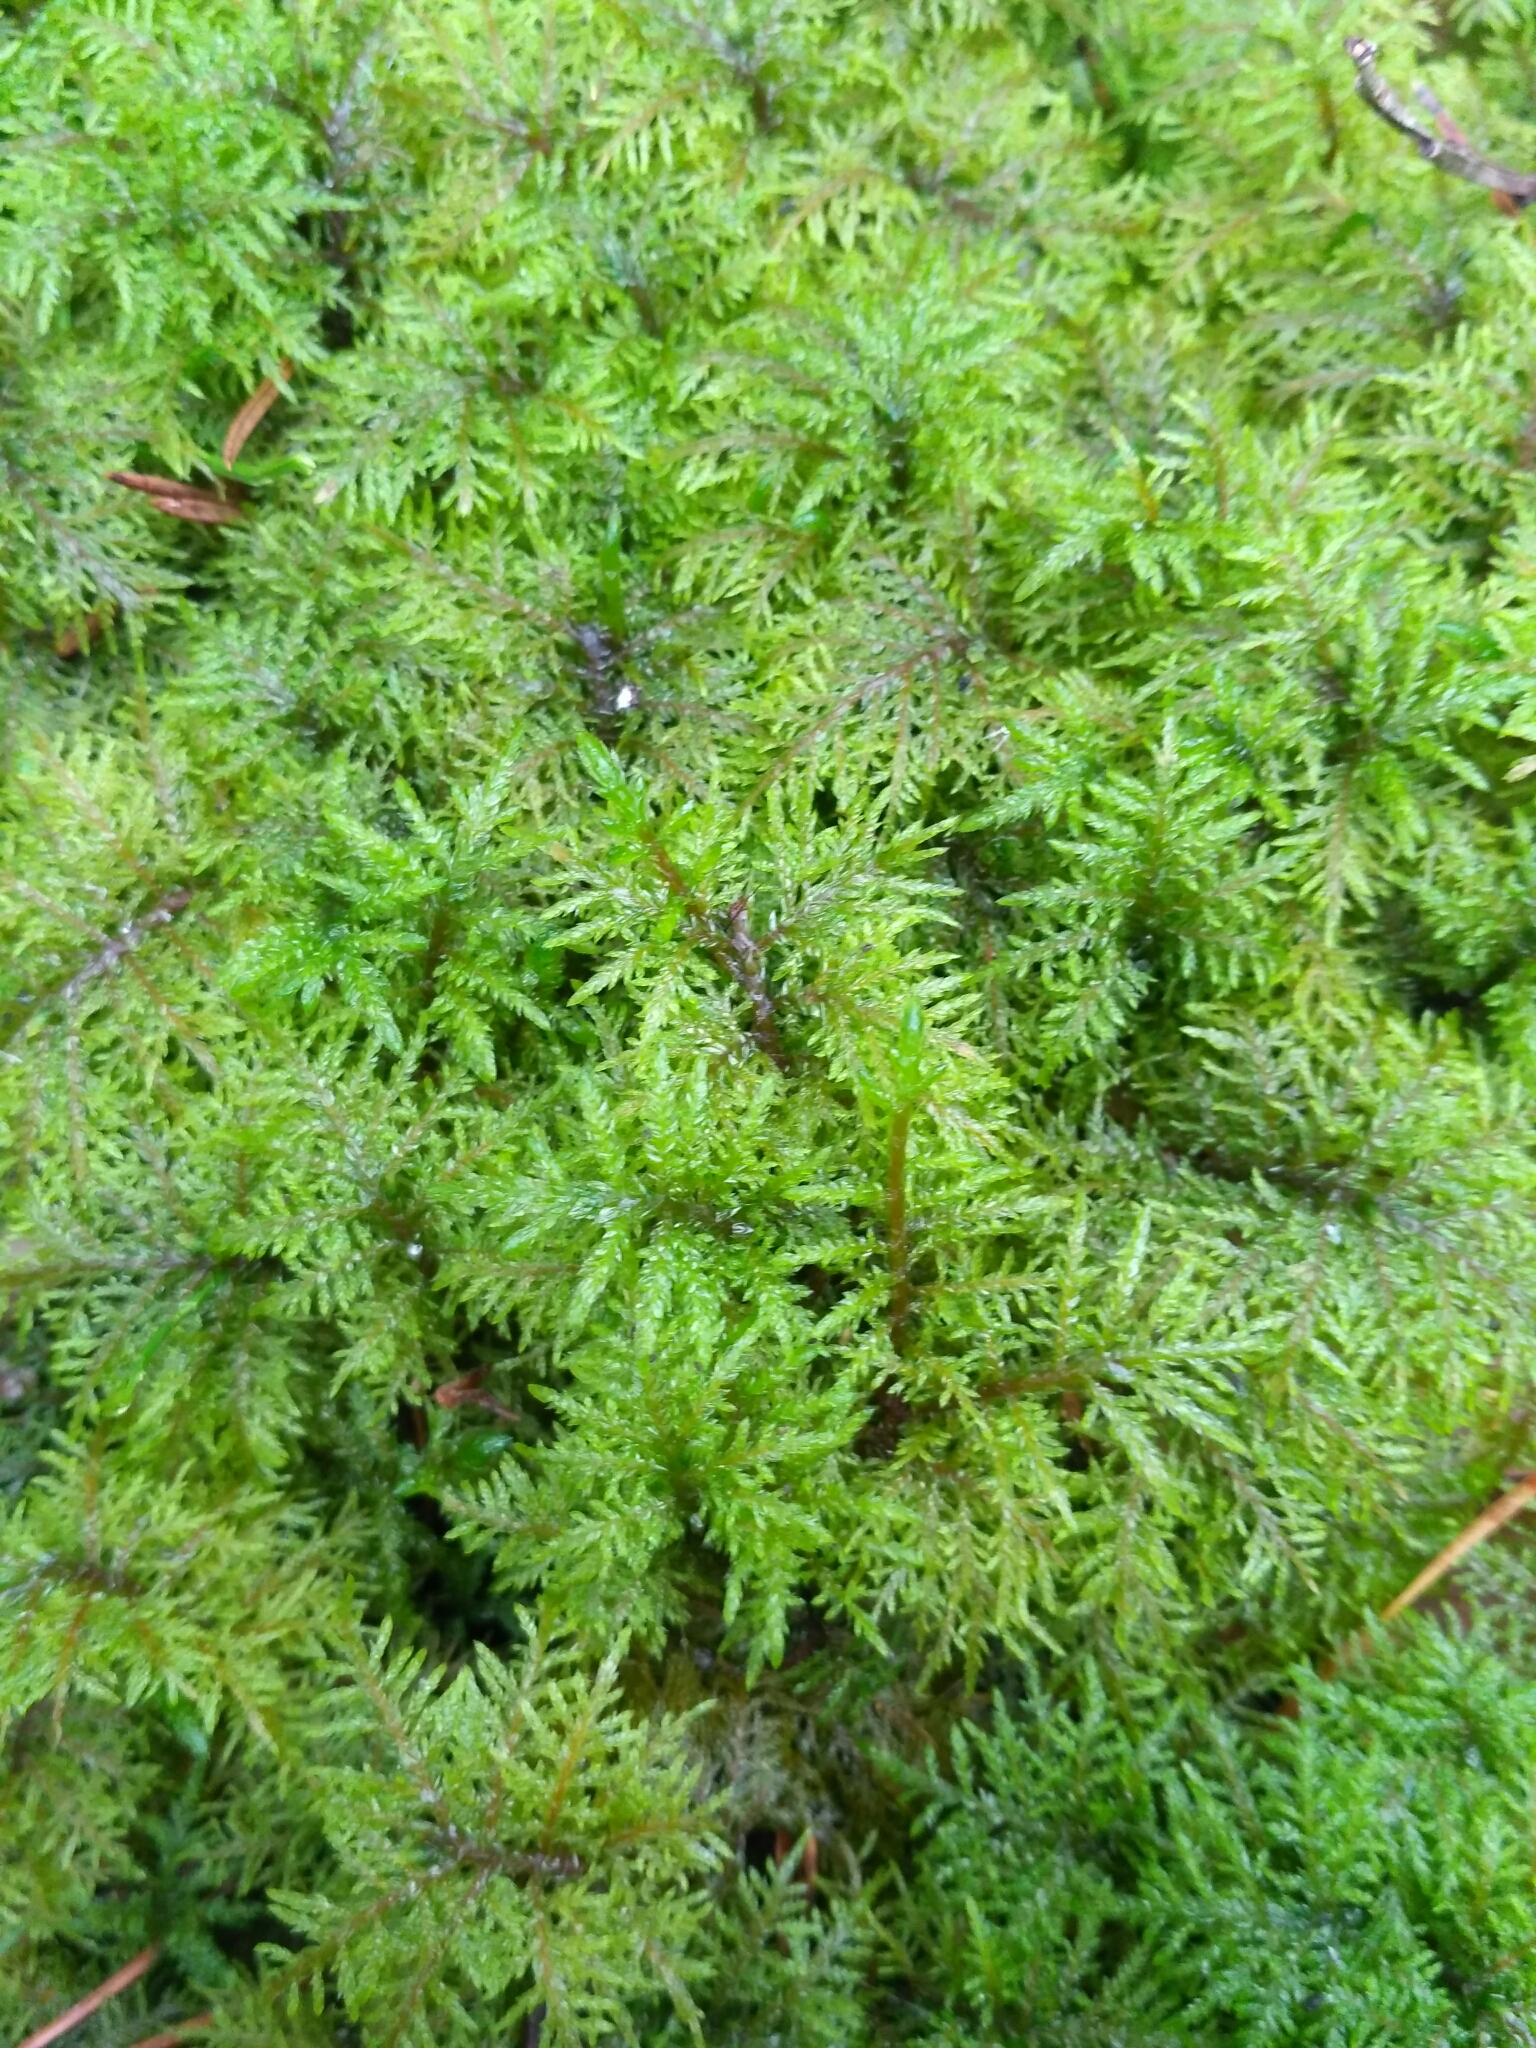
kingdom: Plantae
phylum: Bryophyta
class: Bryopsida
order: Hypnales
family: Hylocomiaceae
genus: Hylocomium
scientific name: Hylocomium splendens
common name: Stairstep moss
